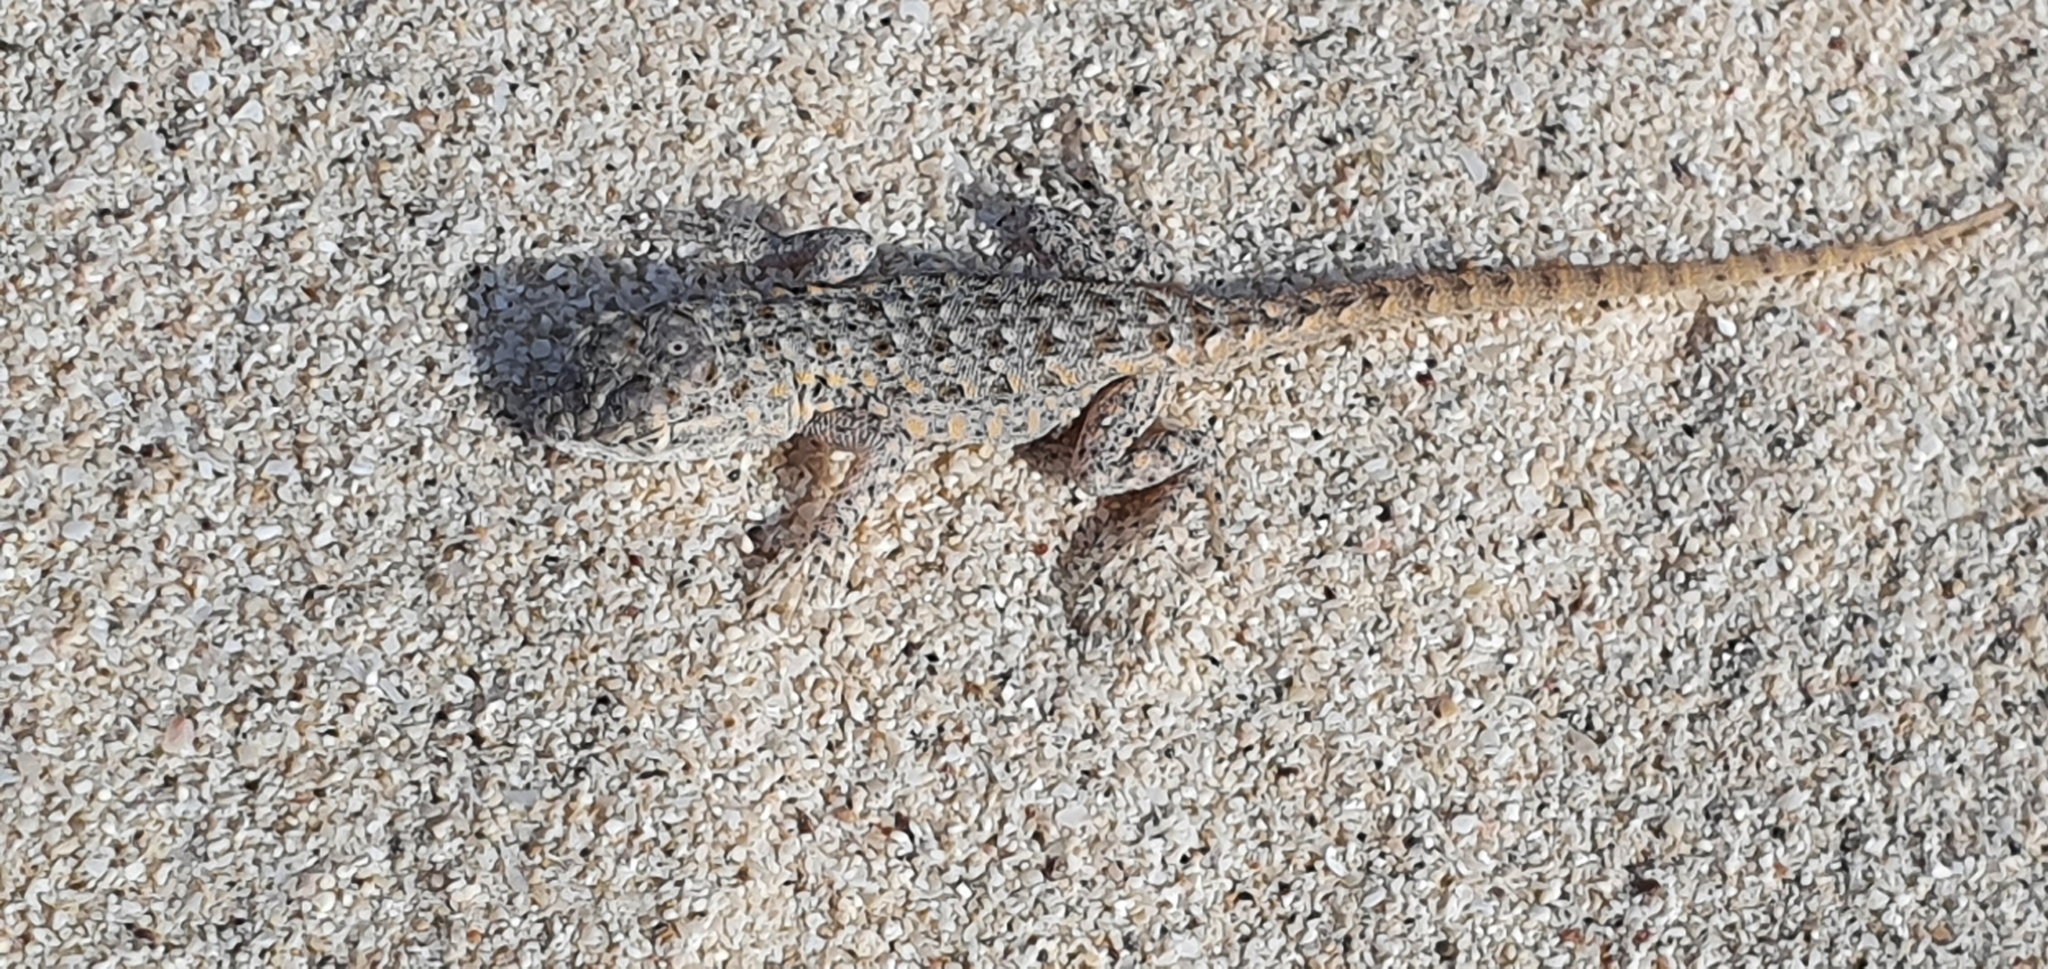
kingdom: Animalia
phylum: Chordata
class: Squamata
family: Phrynosomatidae
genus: Uta
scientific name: Uta stansburiana
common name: Side-blotched lizard
